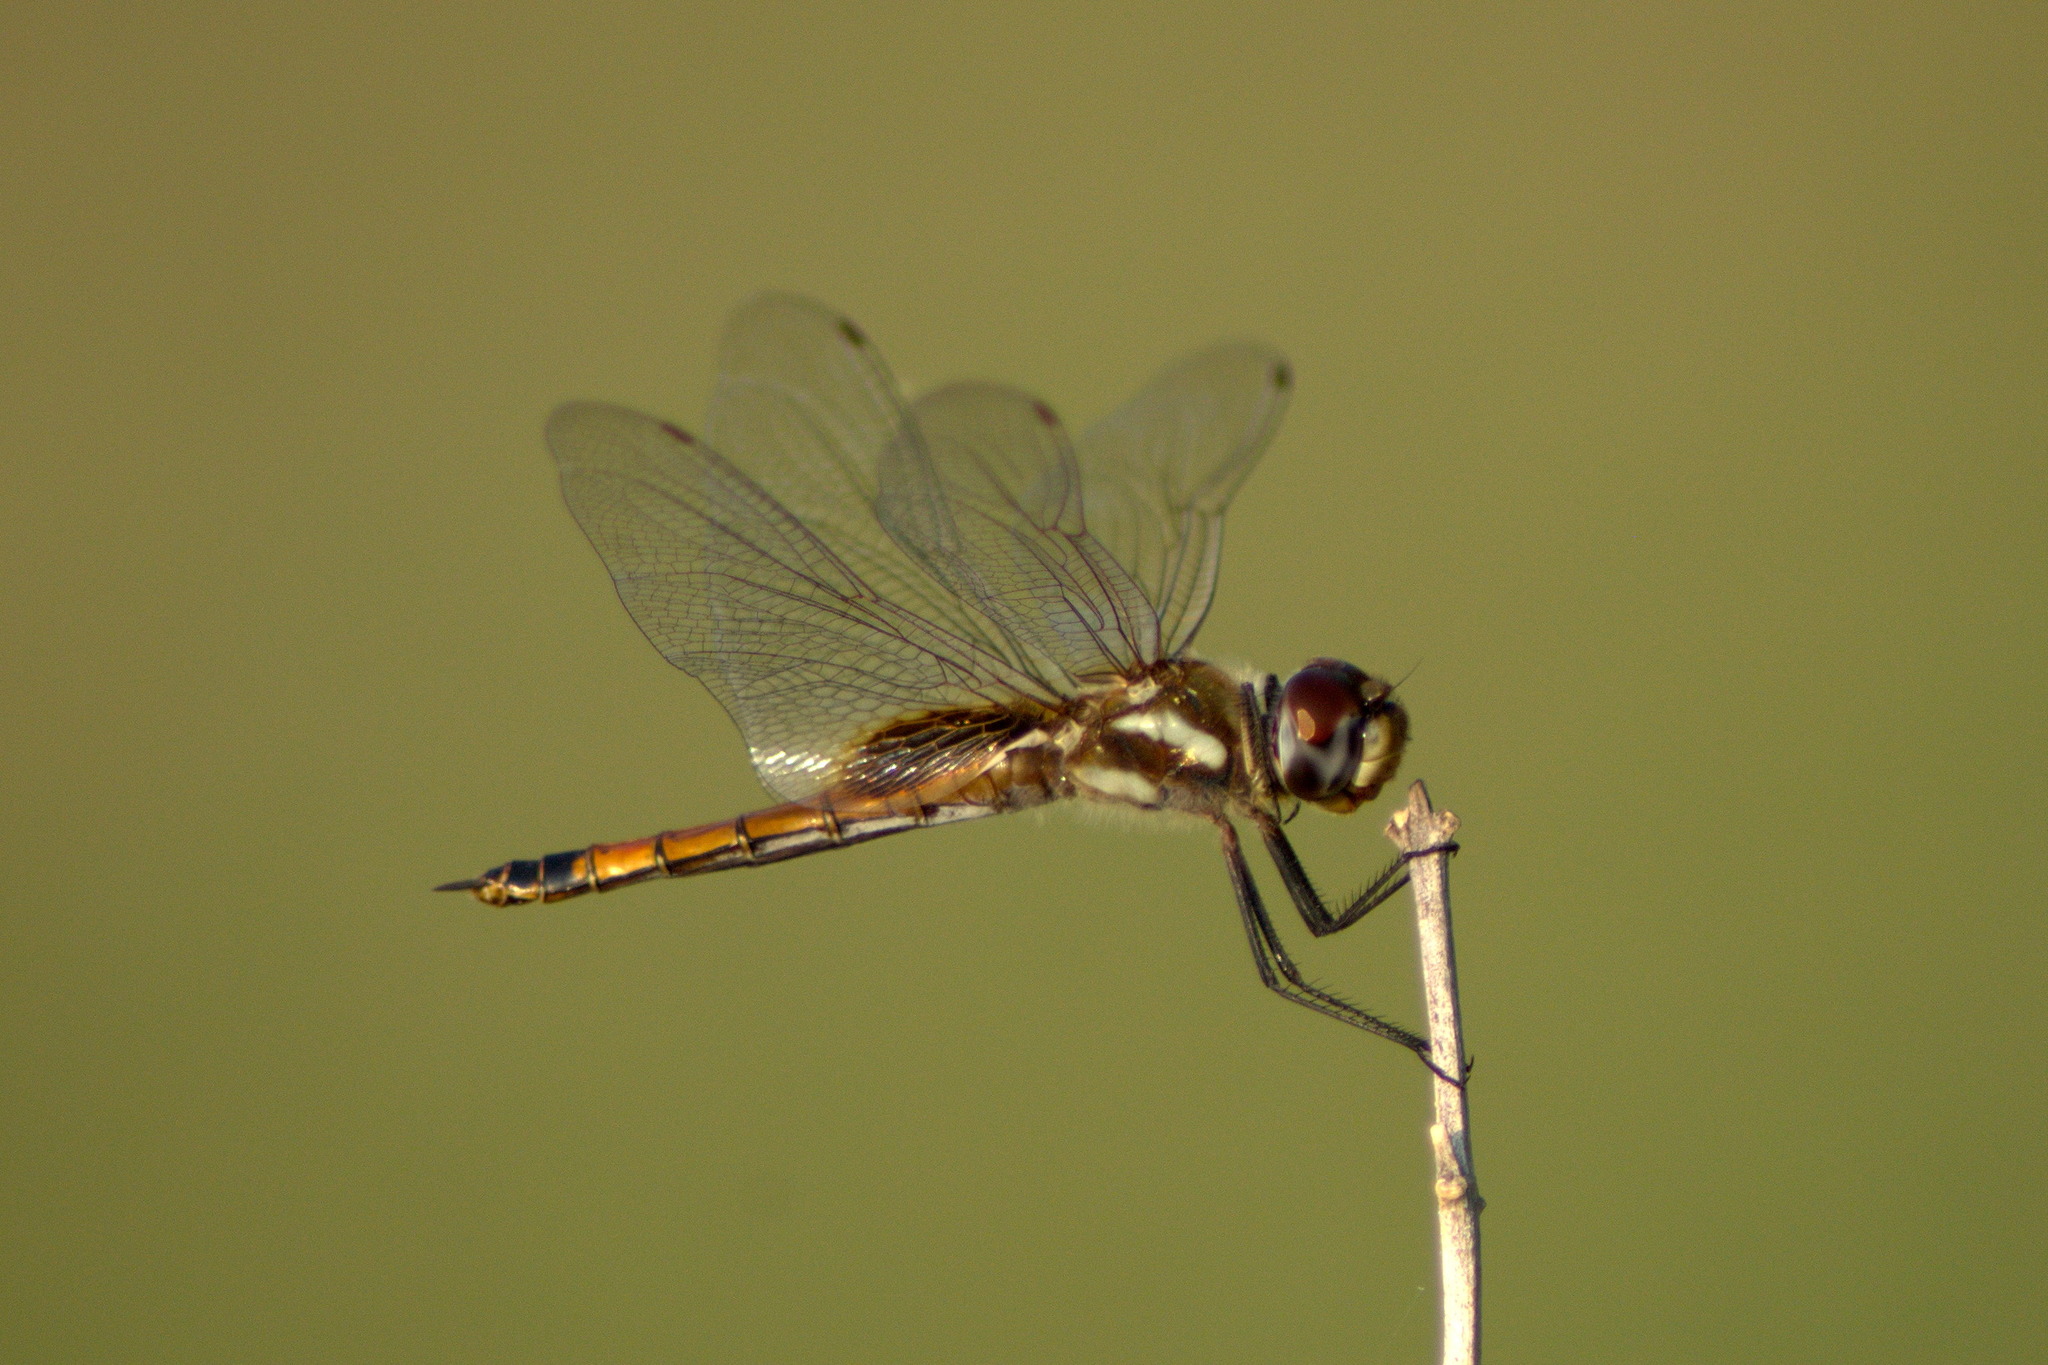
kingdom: Animalia
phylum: Arthropoda
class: Insecta
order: Odonata
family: Libellulidae
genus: Tramea
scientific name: Tramea darwini
